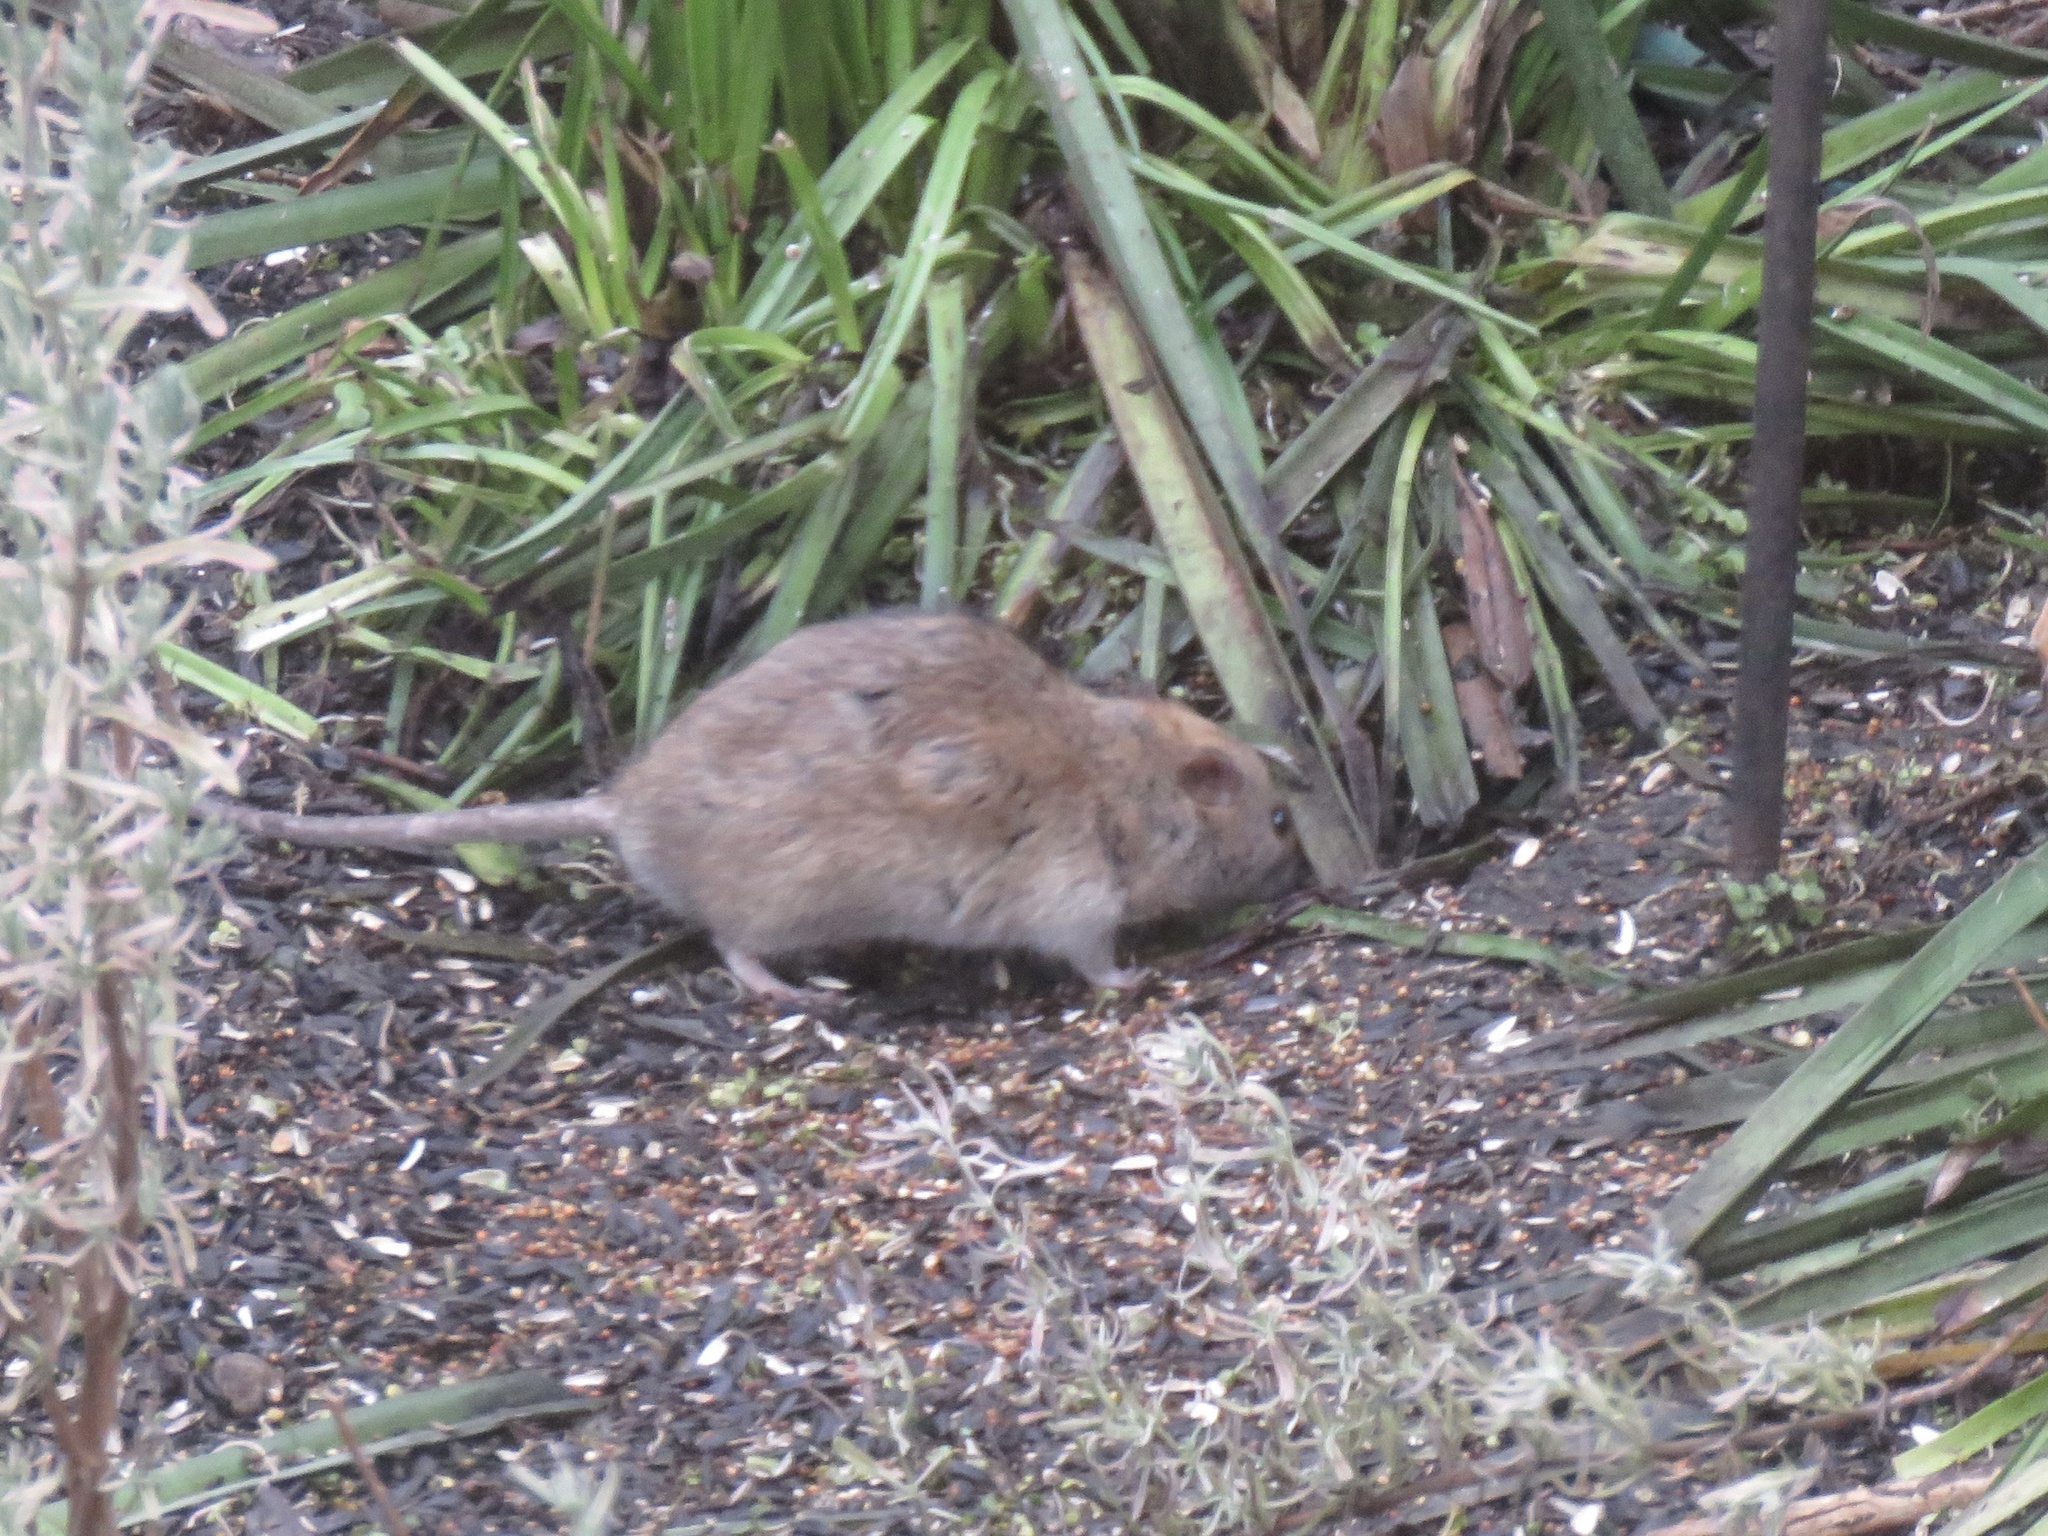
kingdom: Animalia
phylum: Chordata
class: Mammalia
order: Rodentia
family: Muridae
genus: Rattus
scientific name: Rattus norvegicus
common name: Brown rat
